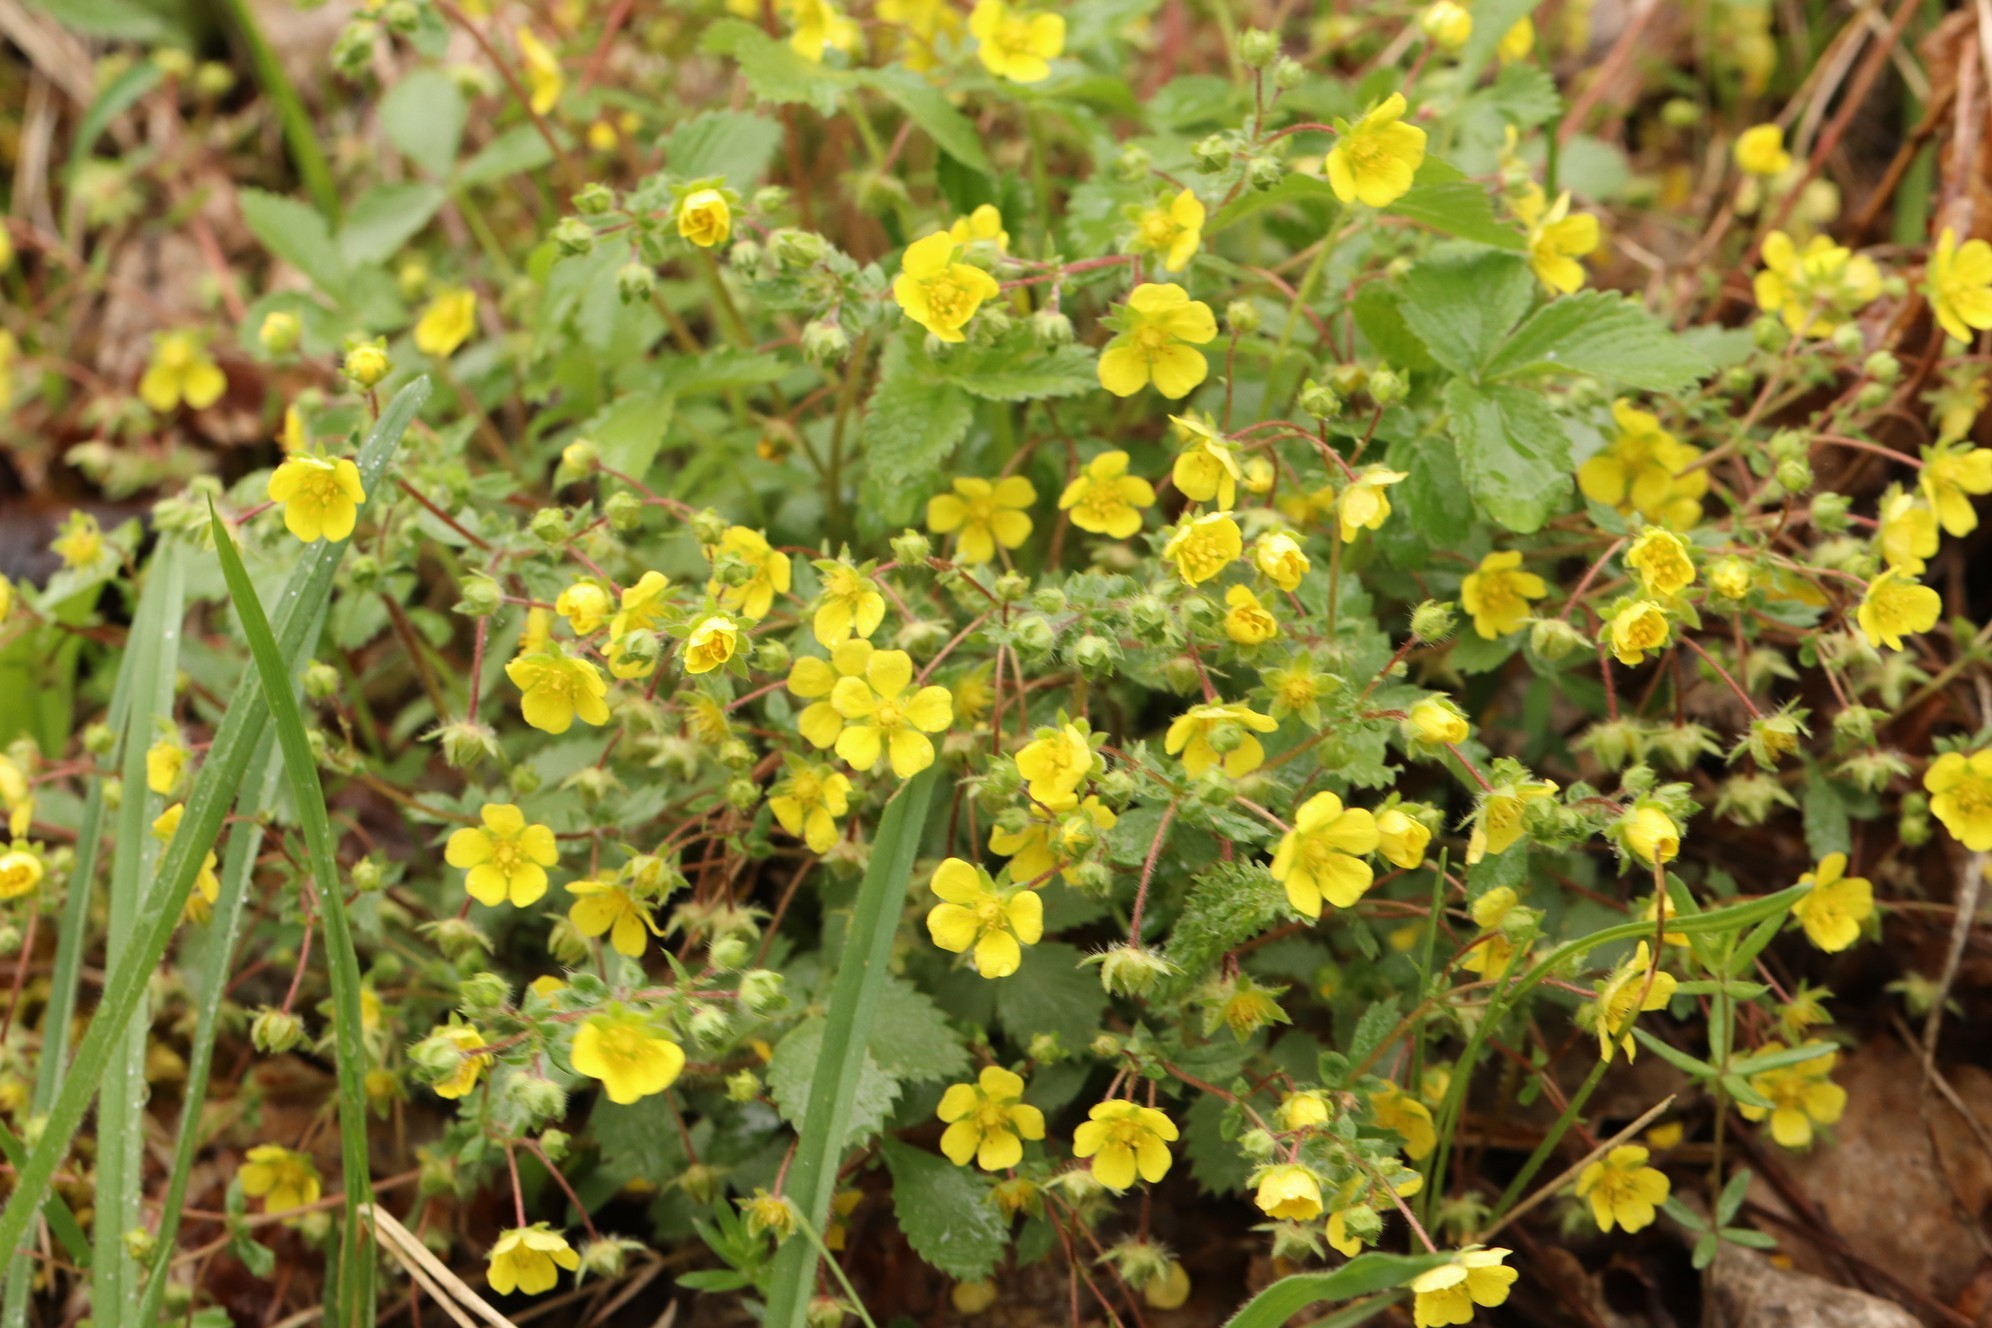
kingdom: Plantae
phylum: Tracheophyta
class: Magnoliopsida
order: Rosales
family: Rosaceae
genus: Potentilla
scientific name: Potentilla fragarioides
